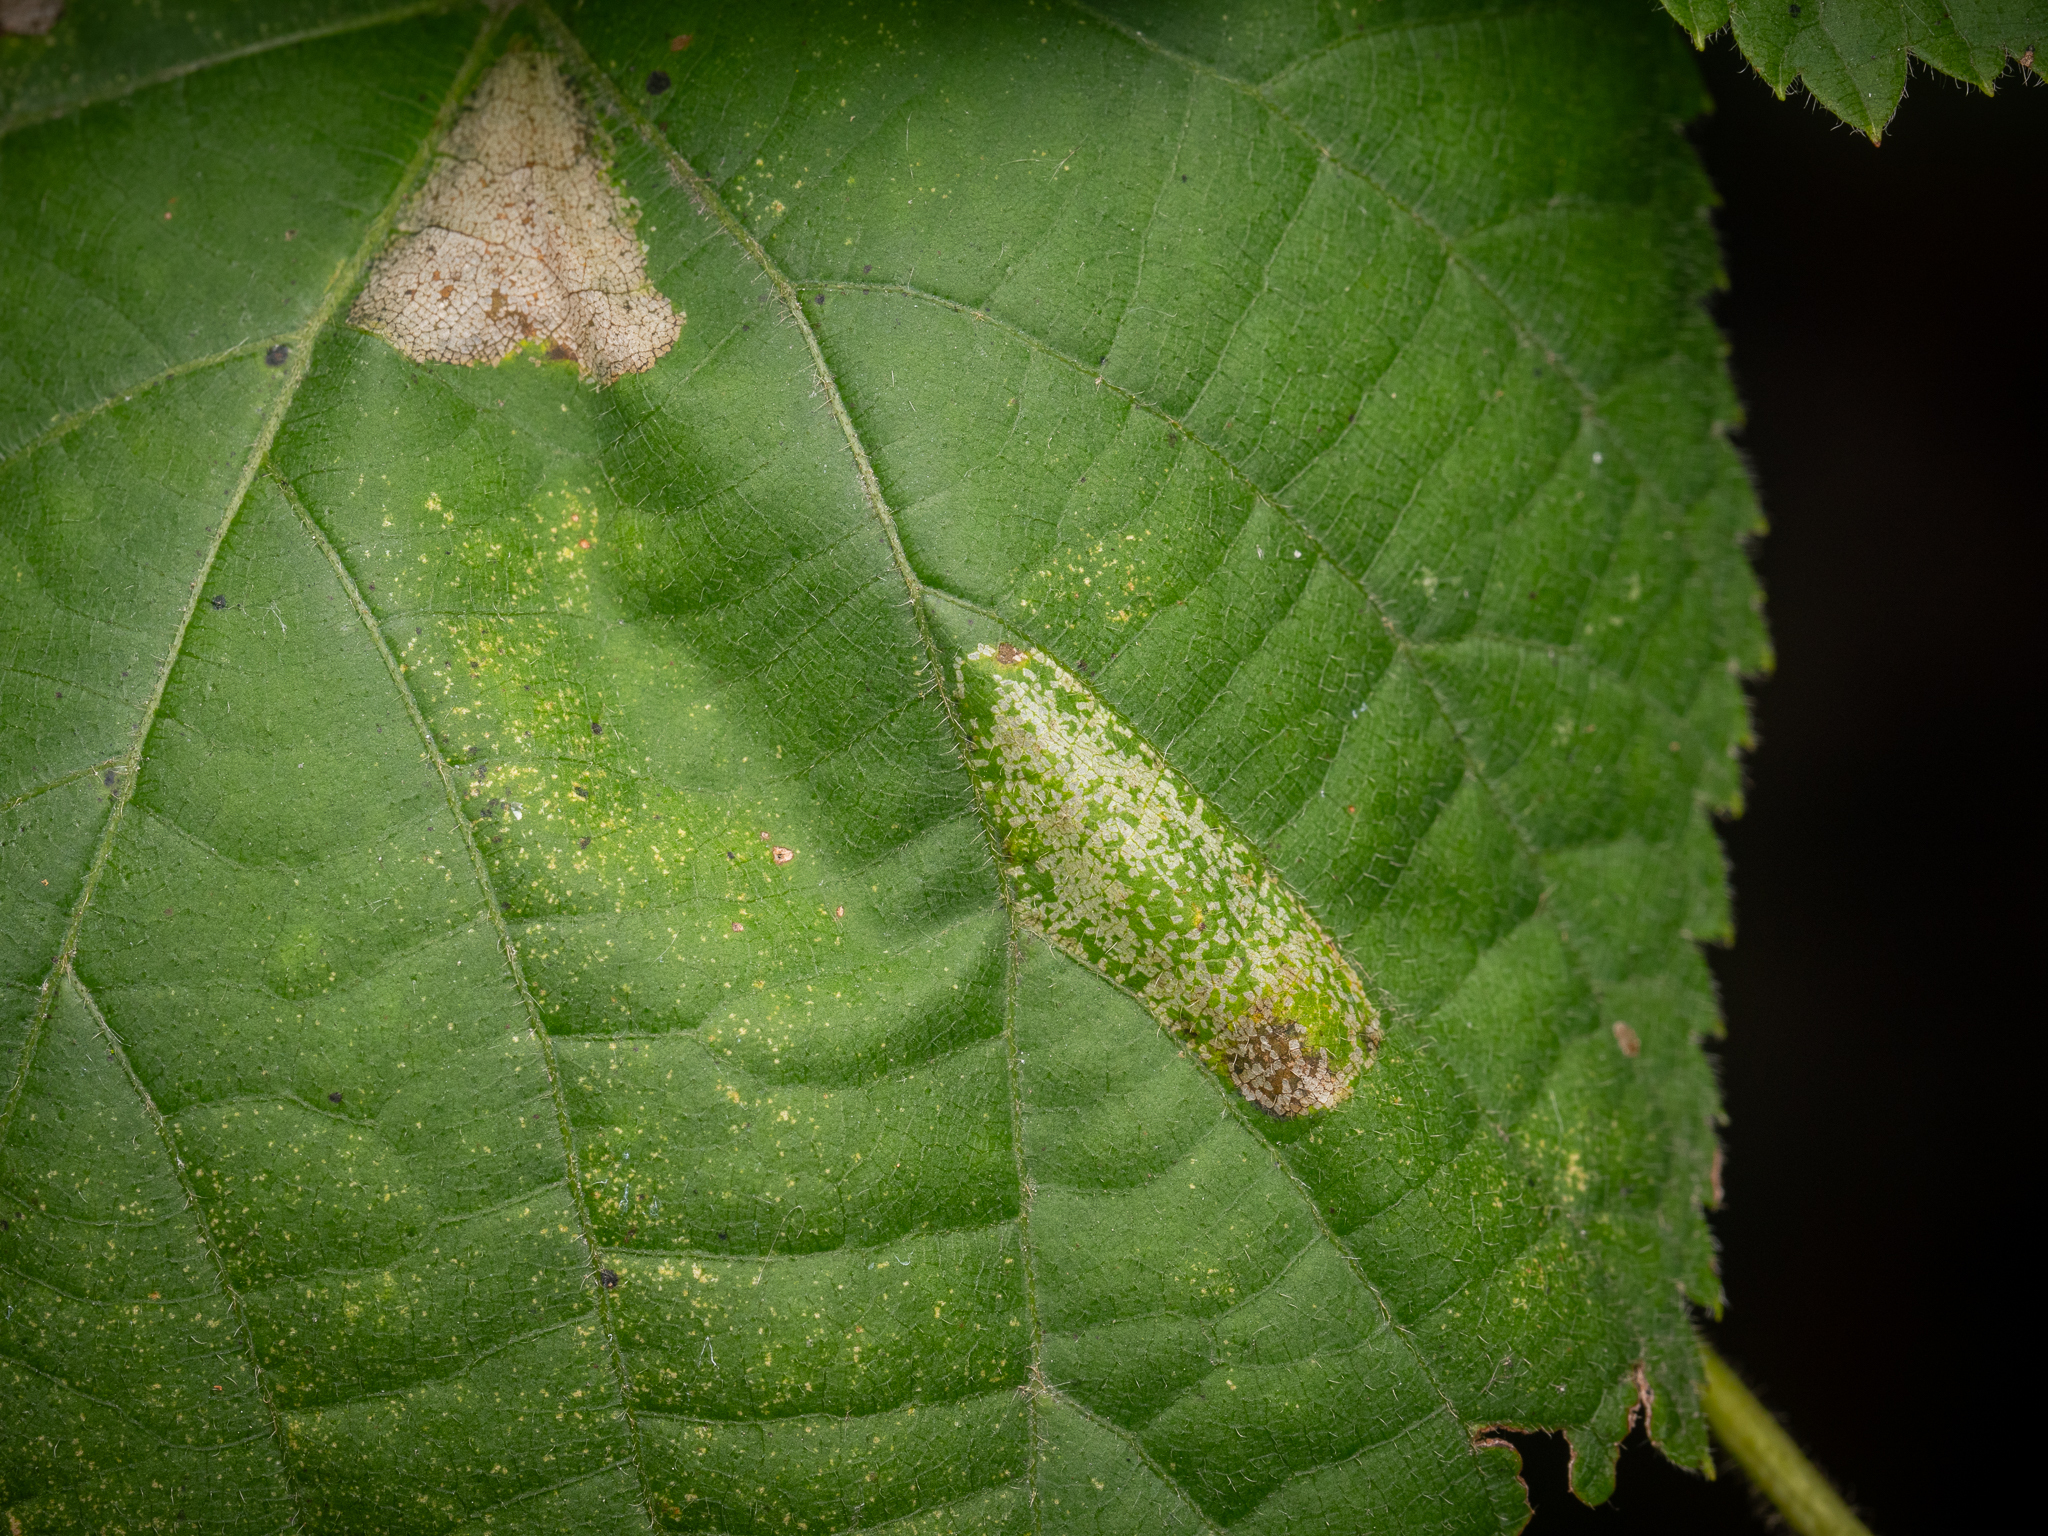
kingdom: Animalia
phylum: Arthropoda
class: Insecta
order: Lepidoptera
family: Gracillariidae
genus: Phyllonorycter
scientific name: Phyllonorycter issikii
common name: Linden midget
